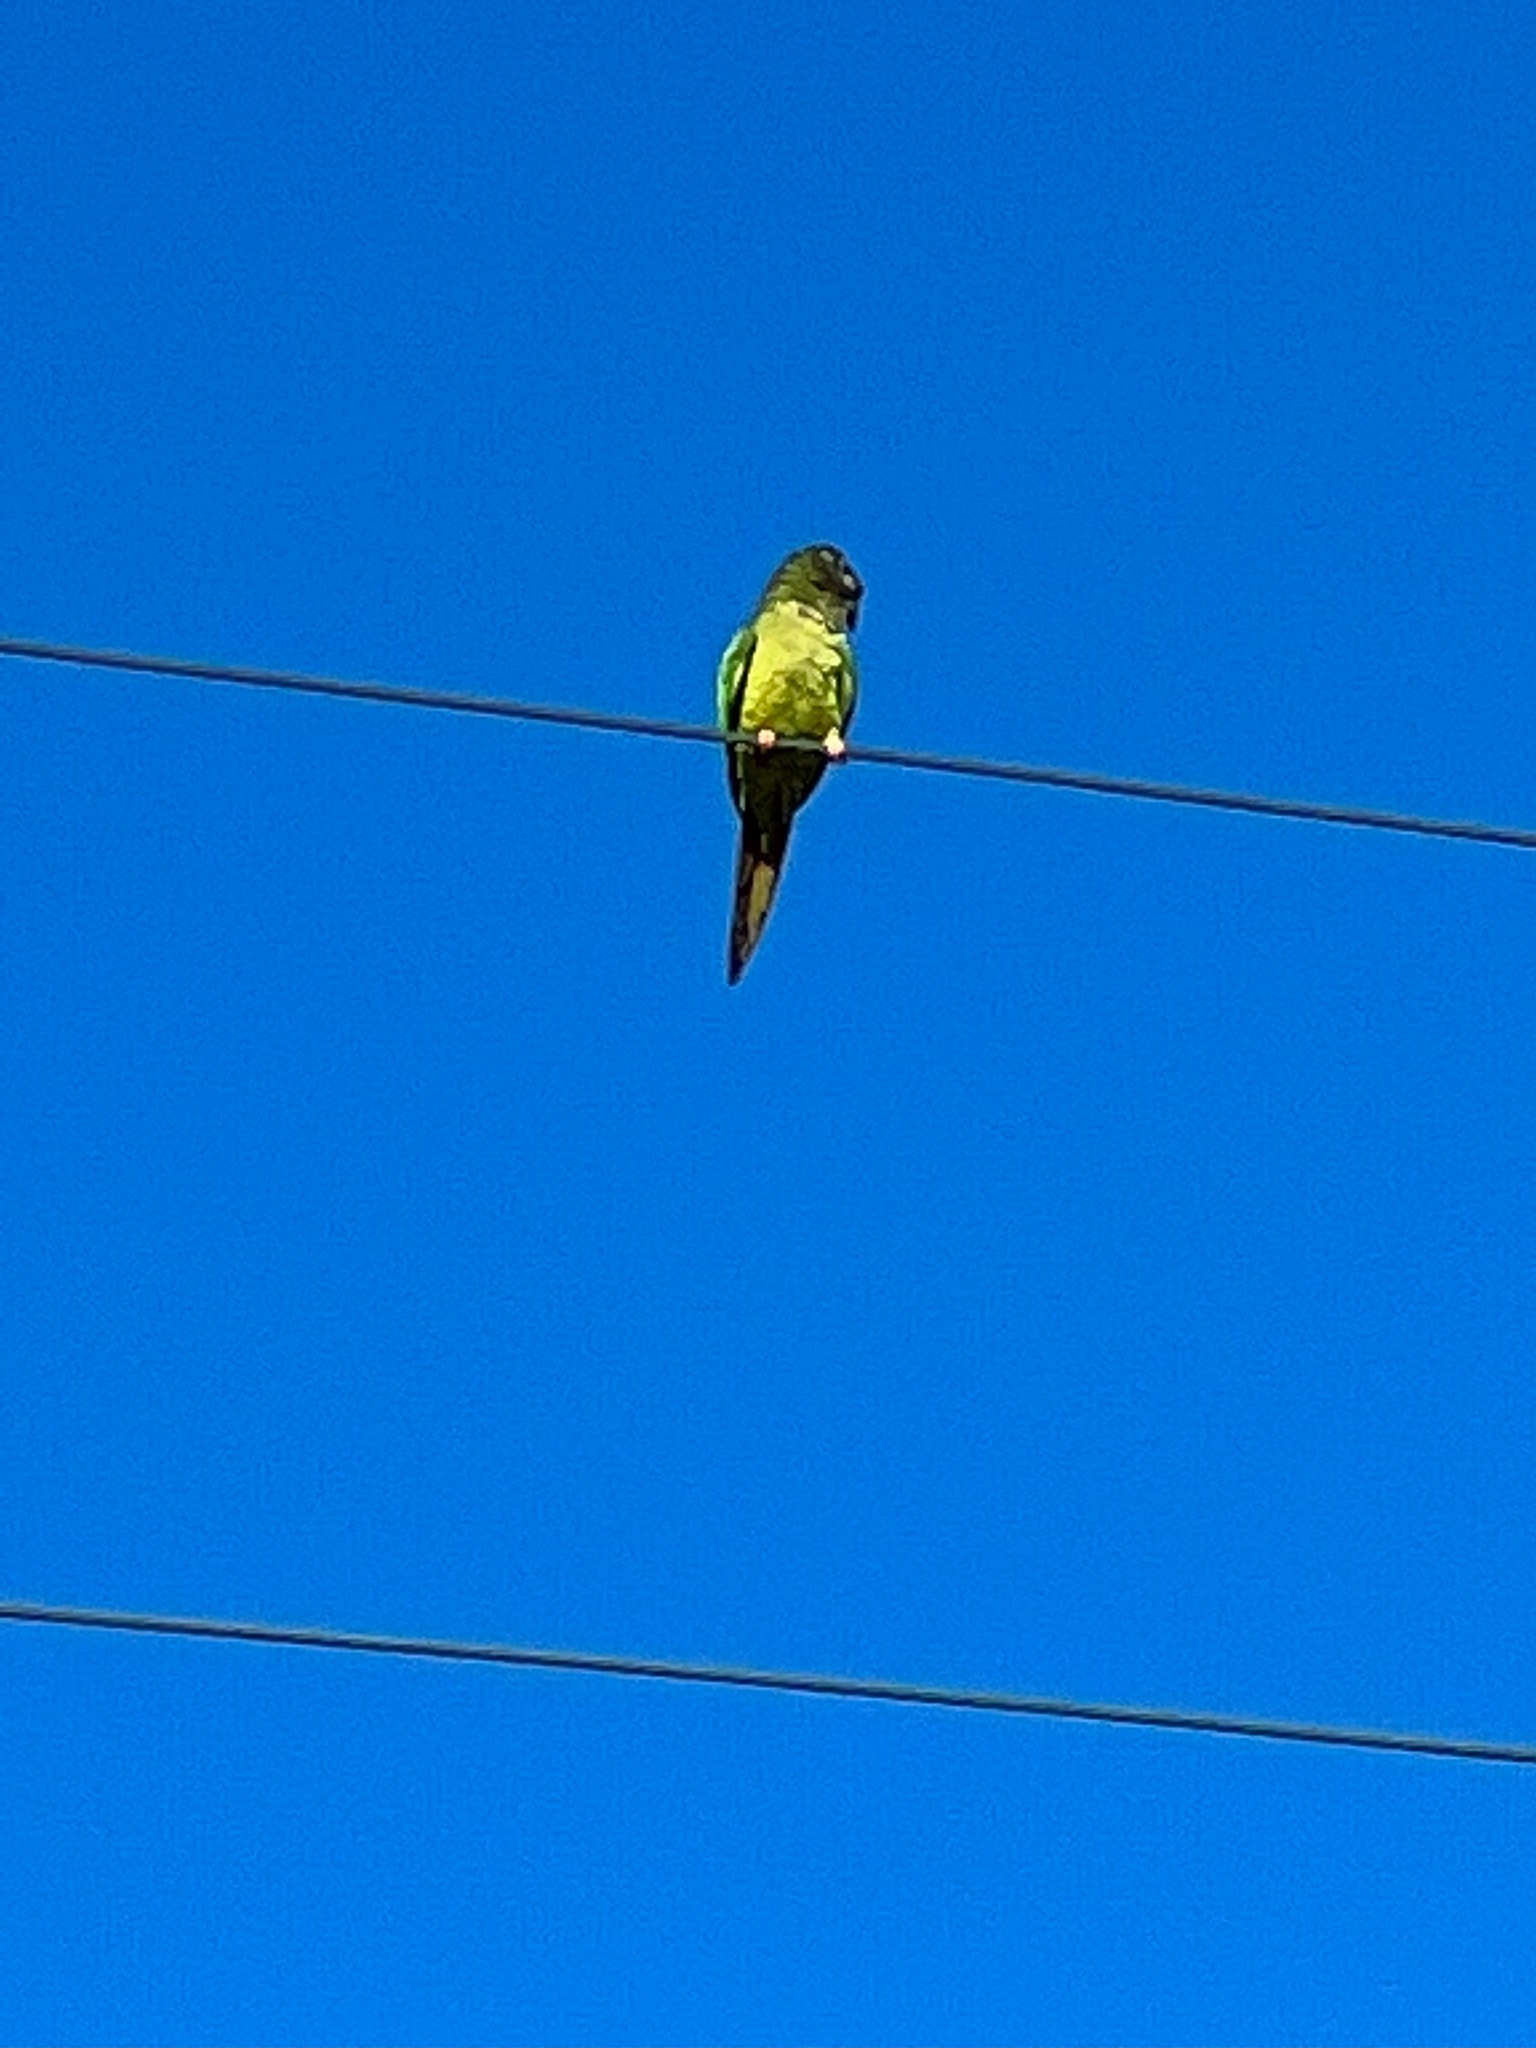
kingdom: Animalia
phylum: Chordata
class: Aves
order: Psittaciformes
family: Psittacidae
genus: Aratinga
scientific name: Aratinga acuticaudata
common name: Blue-crowned parakeet
